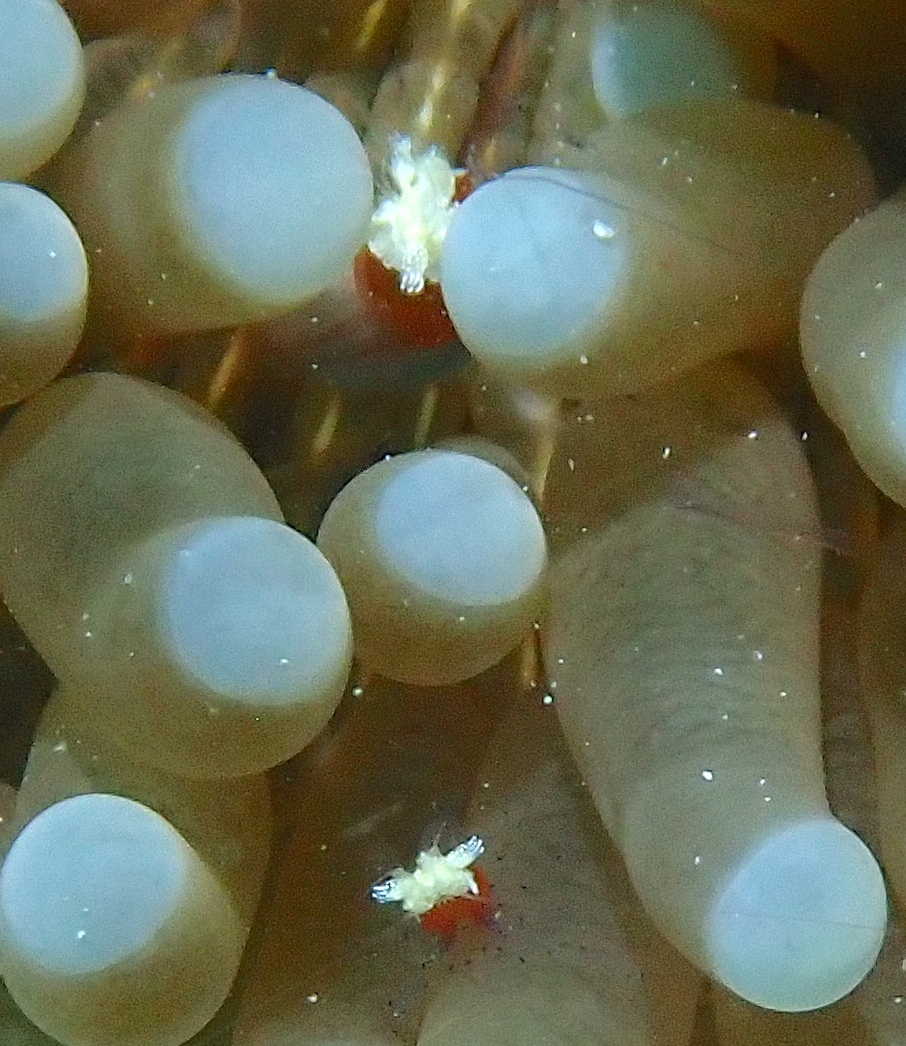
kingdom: Animalia
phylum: Arthropoda
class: Malacostraca
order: Decapoda
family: Palaemonidae
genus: Cuapetes
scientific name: Cuapetes kororensis
